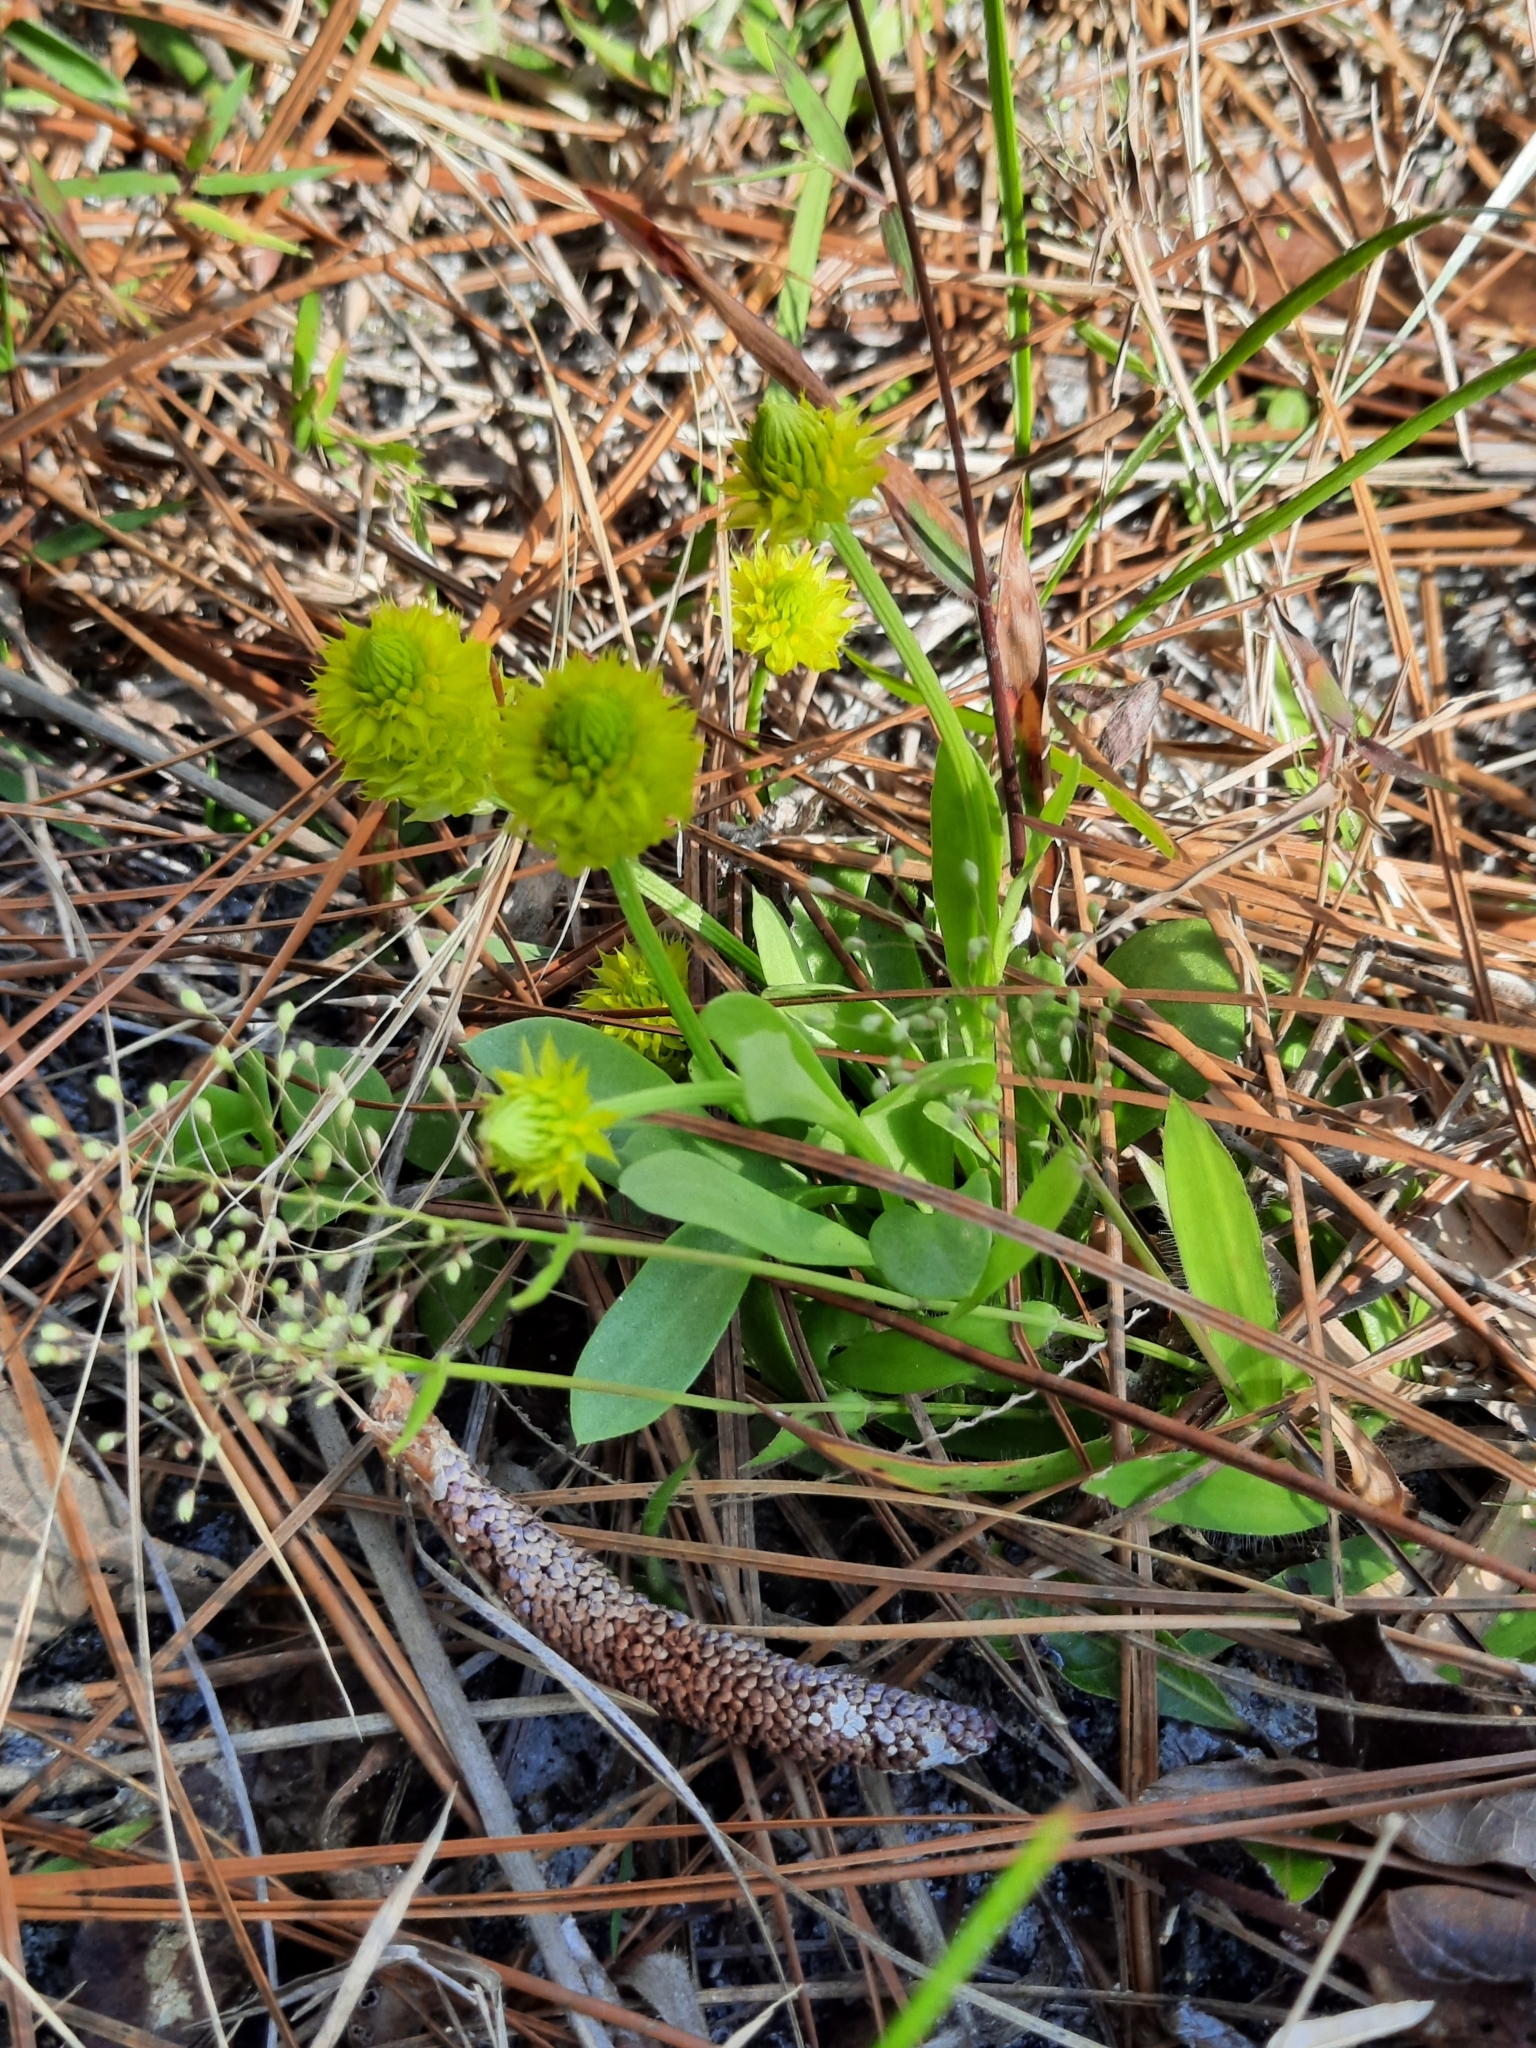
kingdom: Plantae
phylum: Tracheophyta
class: Magnoliopsida
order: Fabales
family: Polygalaceae
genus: Polygala
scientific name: Polygala nana
